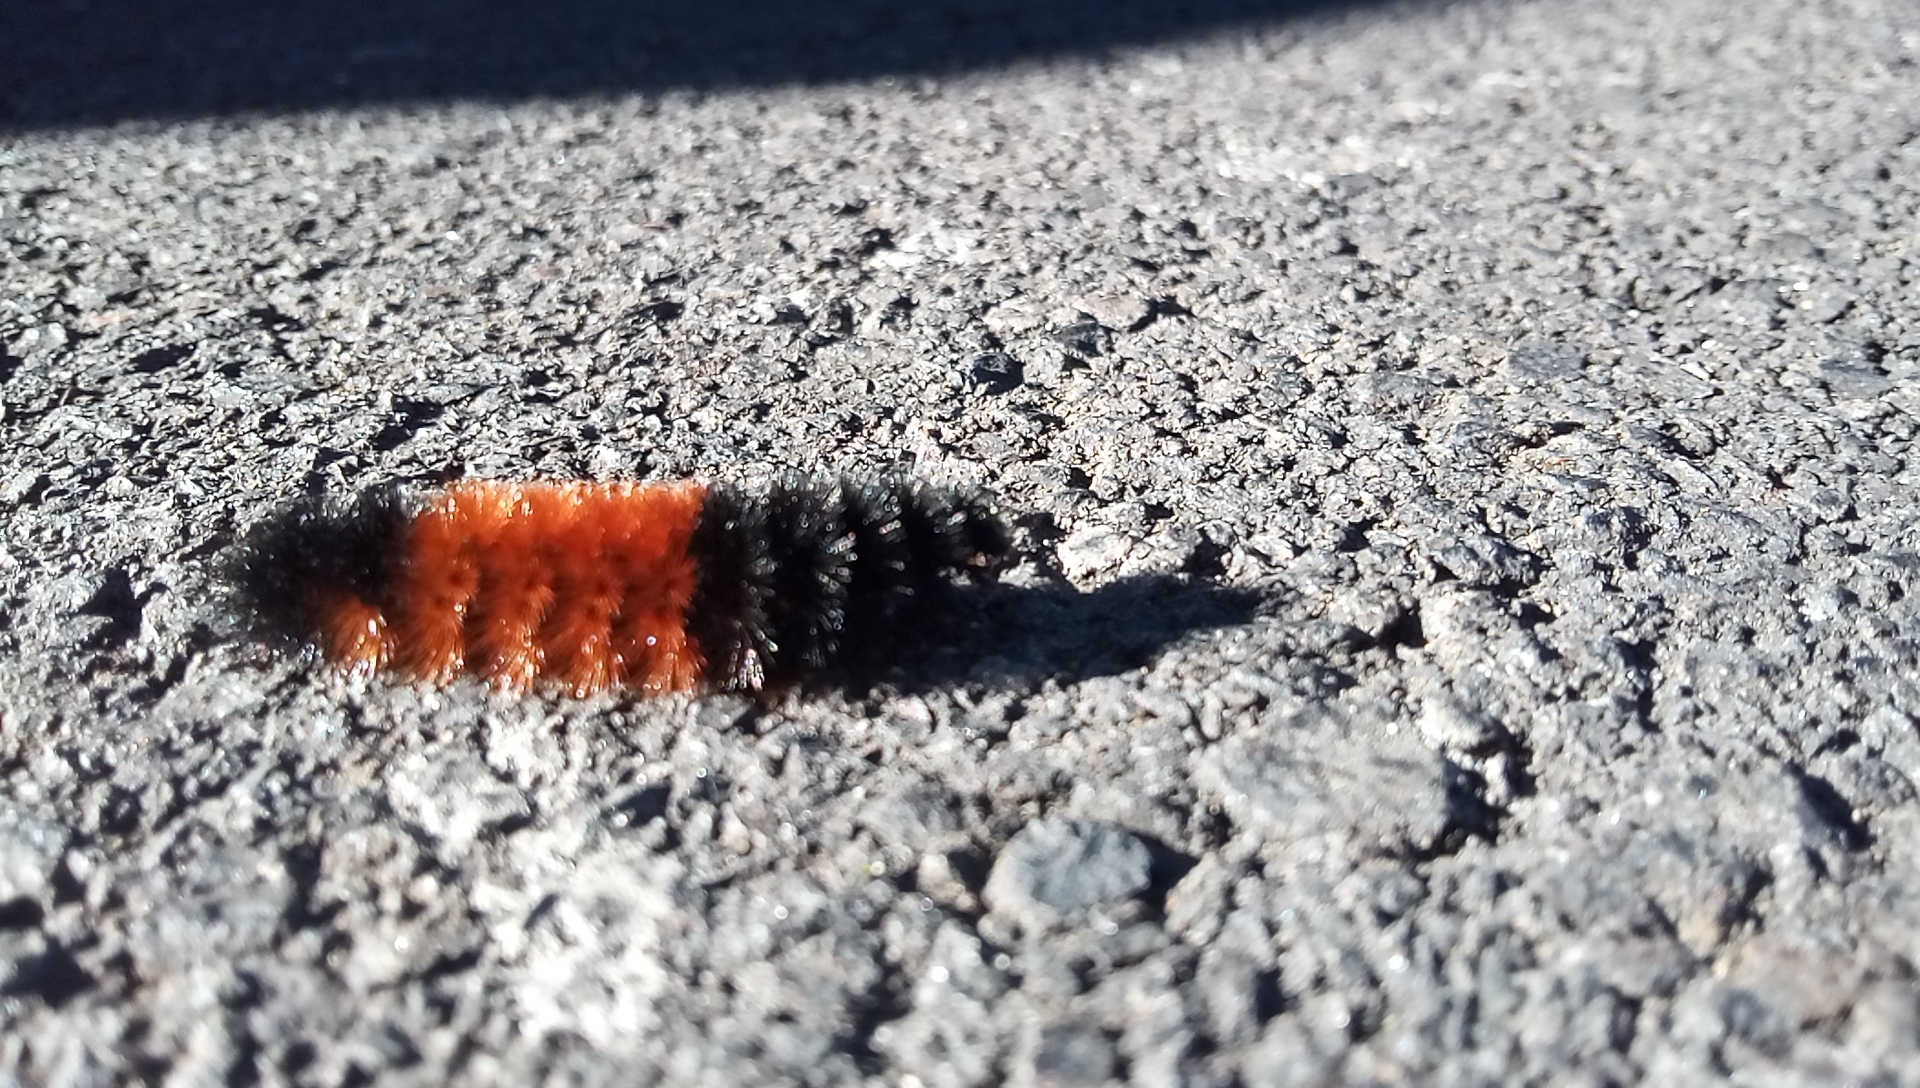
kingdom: Animalia
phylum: Arthropoda
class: Insecta
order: Lepidoptera
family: Erebidae
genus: Pyrrharctia
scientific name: Pyrrharctia isabella
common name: Isabella tiger moth
